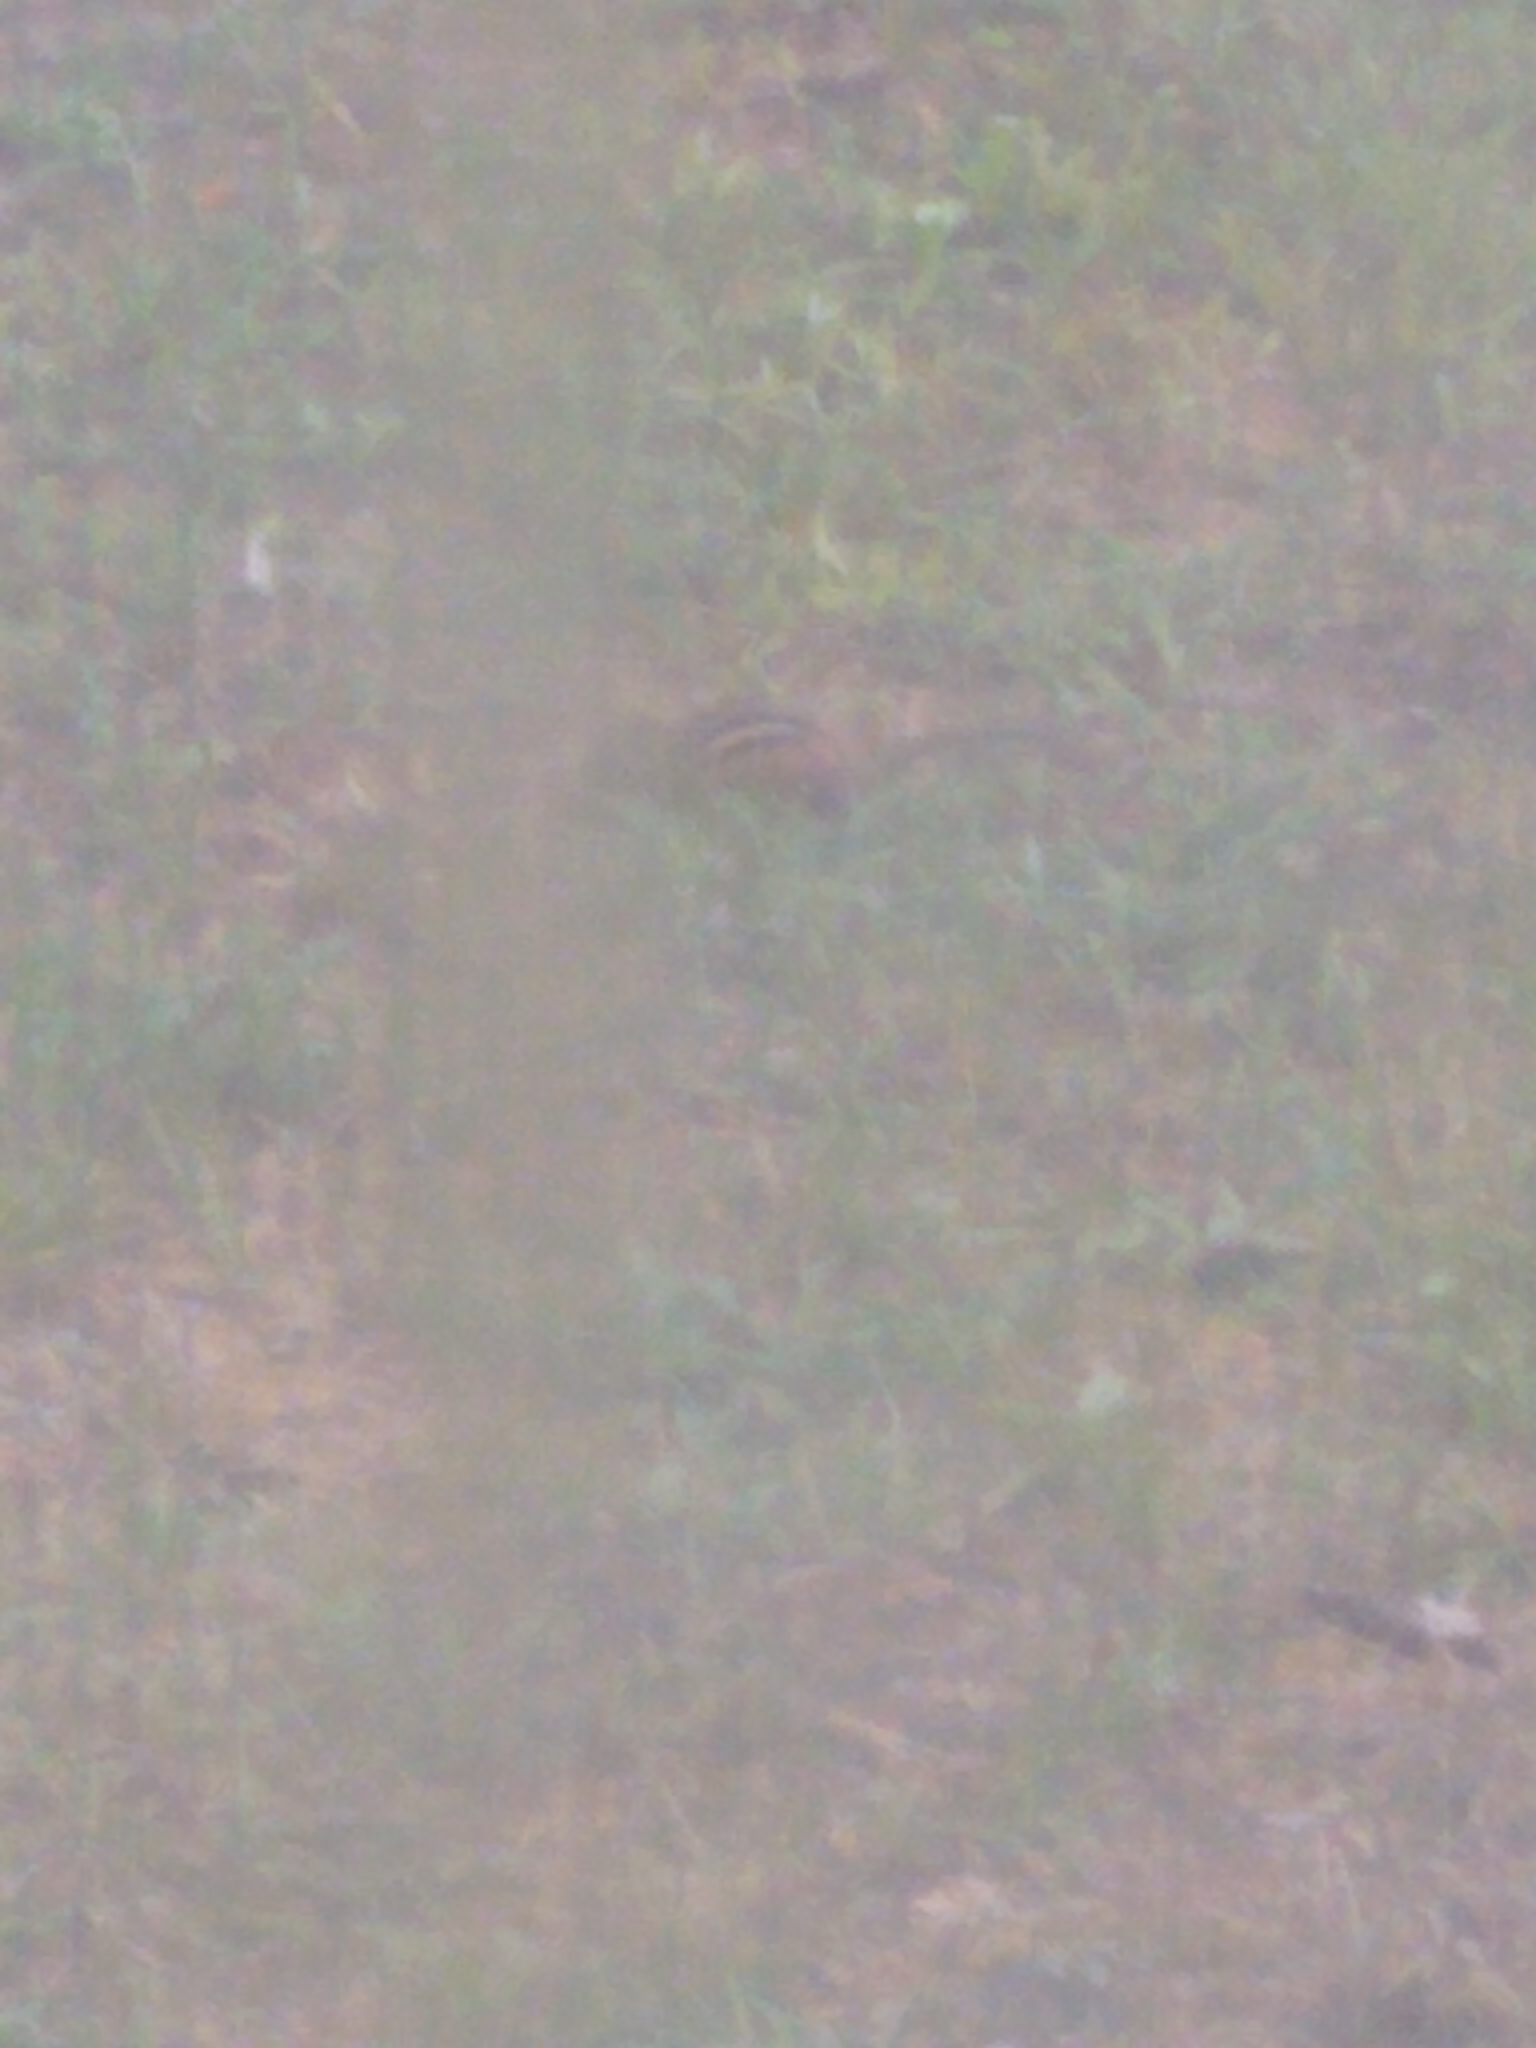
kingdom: Animalia
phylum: Chordata
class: Mammalia
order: Rodentia
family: Sciuridae
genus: Tamias
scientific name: Tamias striatus
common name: Eastern chipmunk
